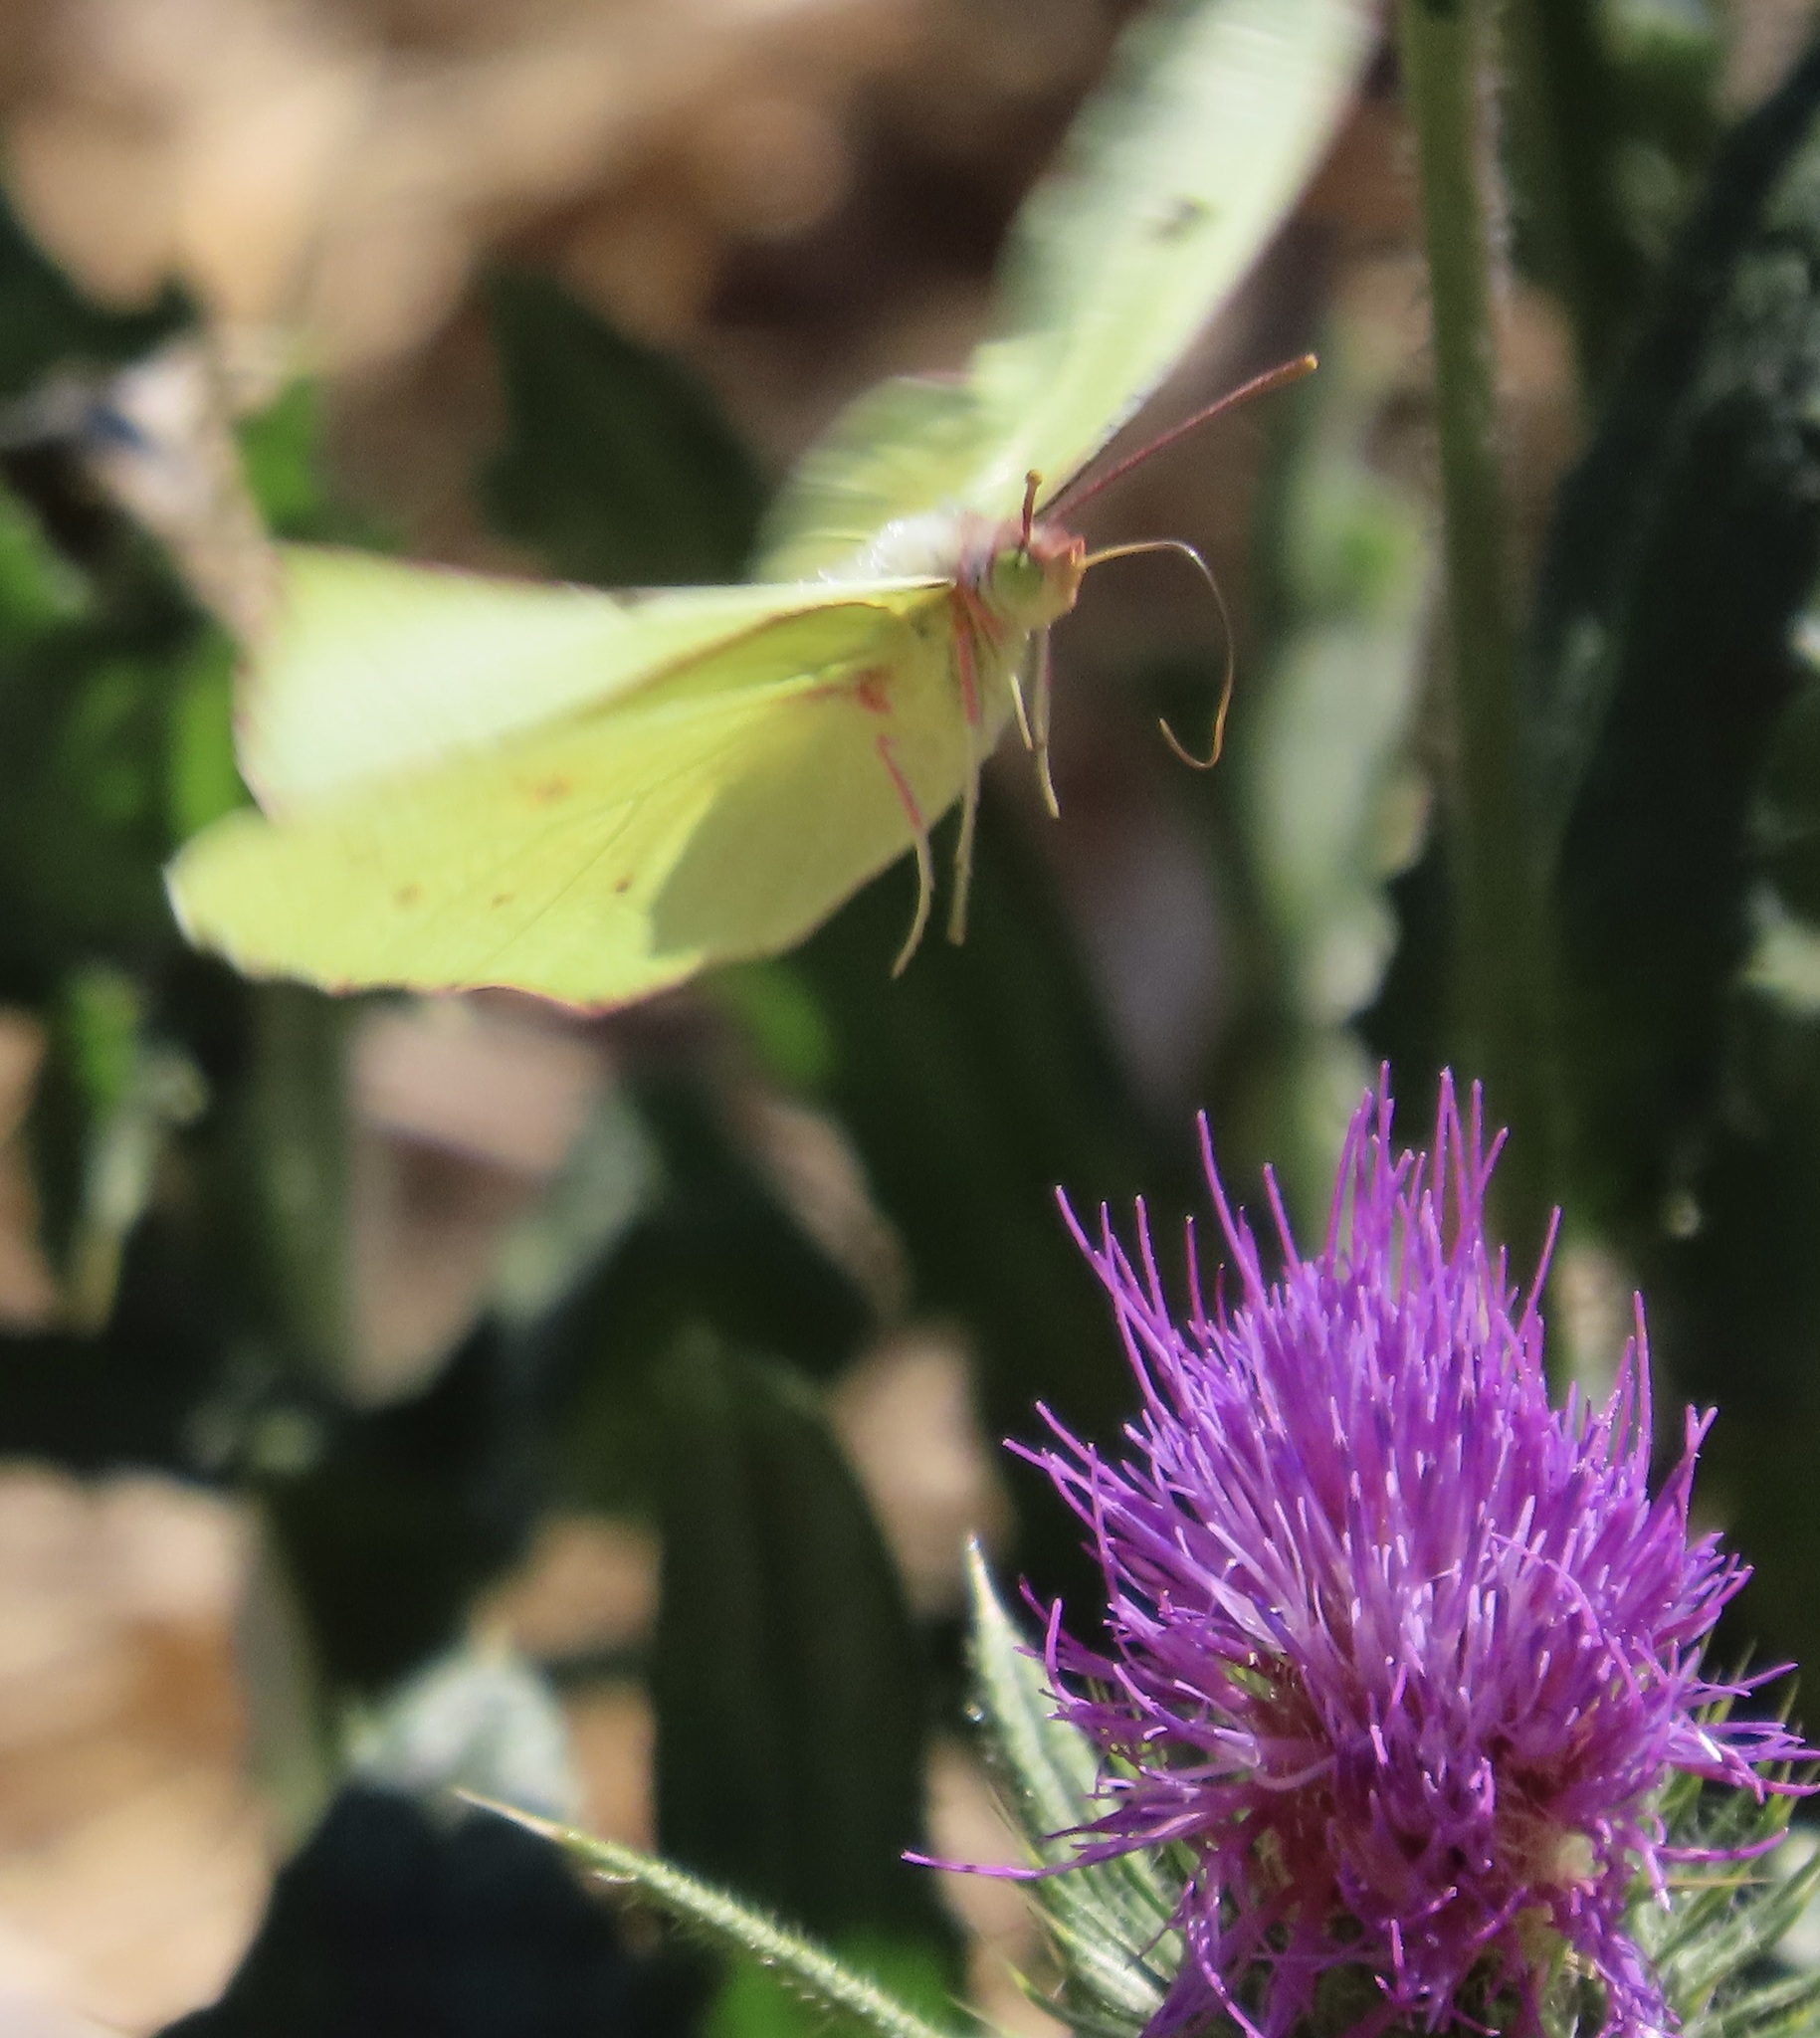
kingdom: Animalia
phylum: Arthropoda
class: Insecta
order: Lepidoptera
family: Pieridae
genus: Zerene
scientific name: Zerene eurydice
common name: California dogface
